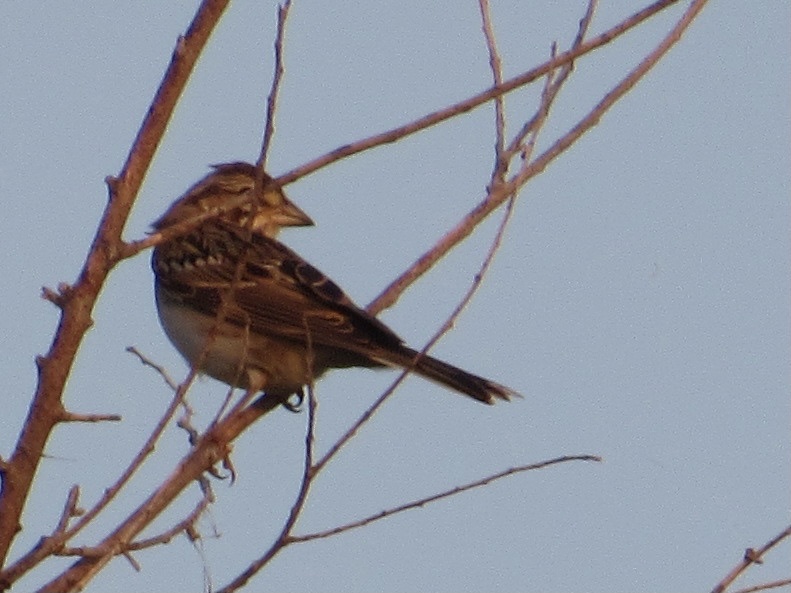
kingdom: Animalia
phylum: Chordata
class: Aves
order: Passeriformes
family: Passerellidae
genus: Chondestes
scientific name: Chondestes grammacus
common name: Lark sparrow
